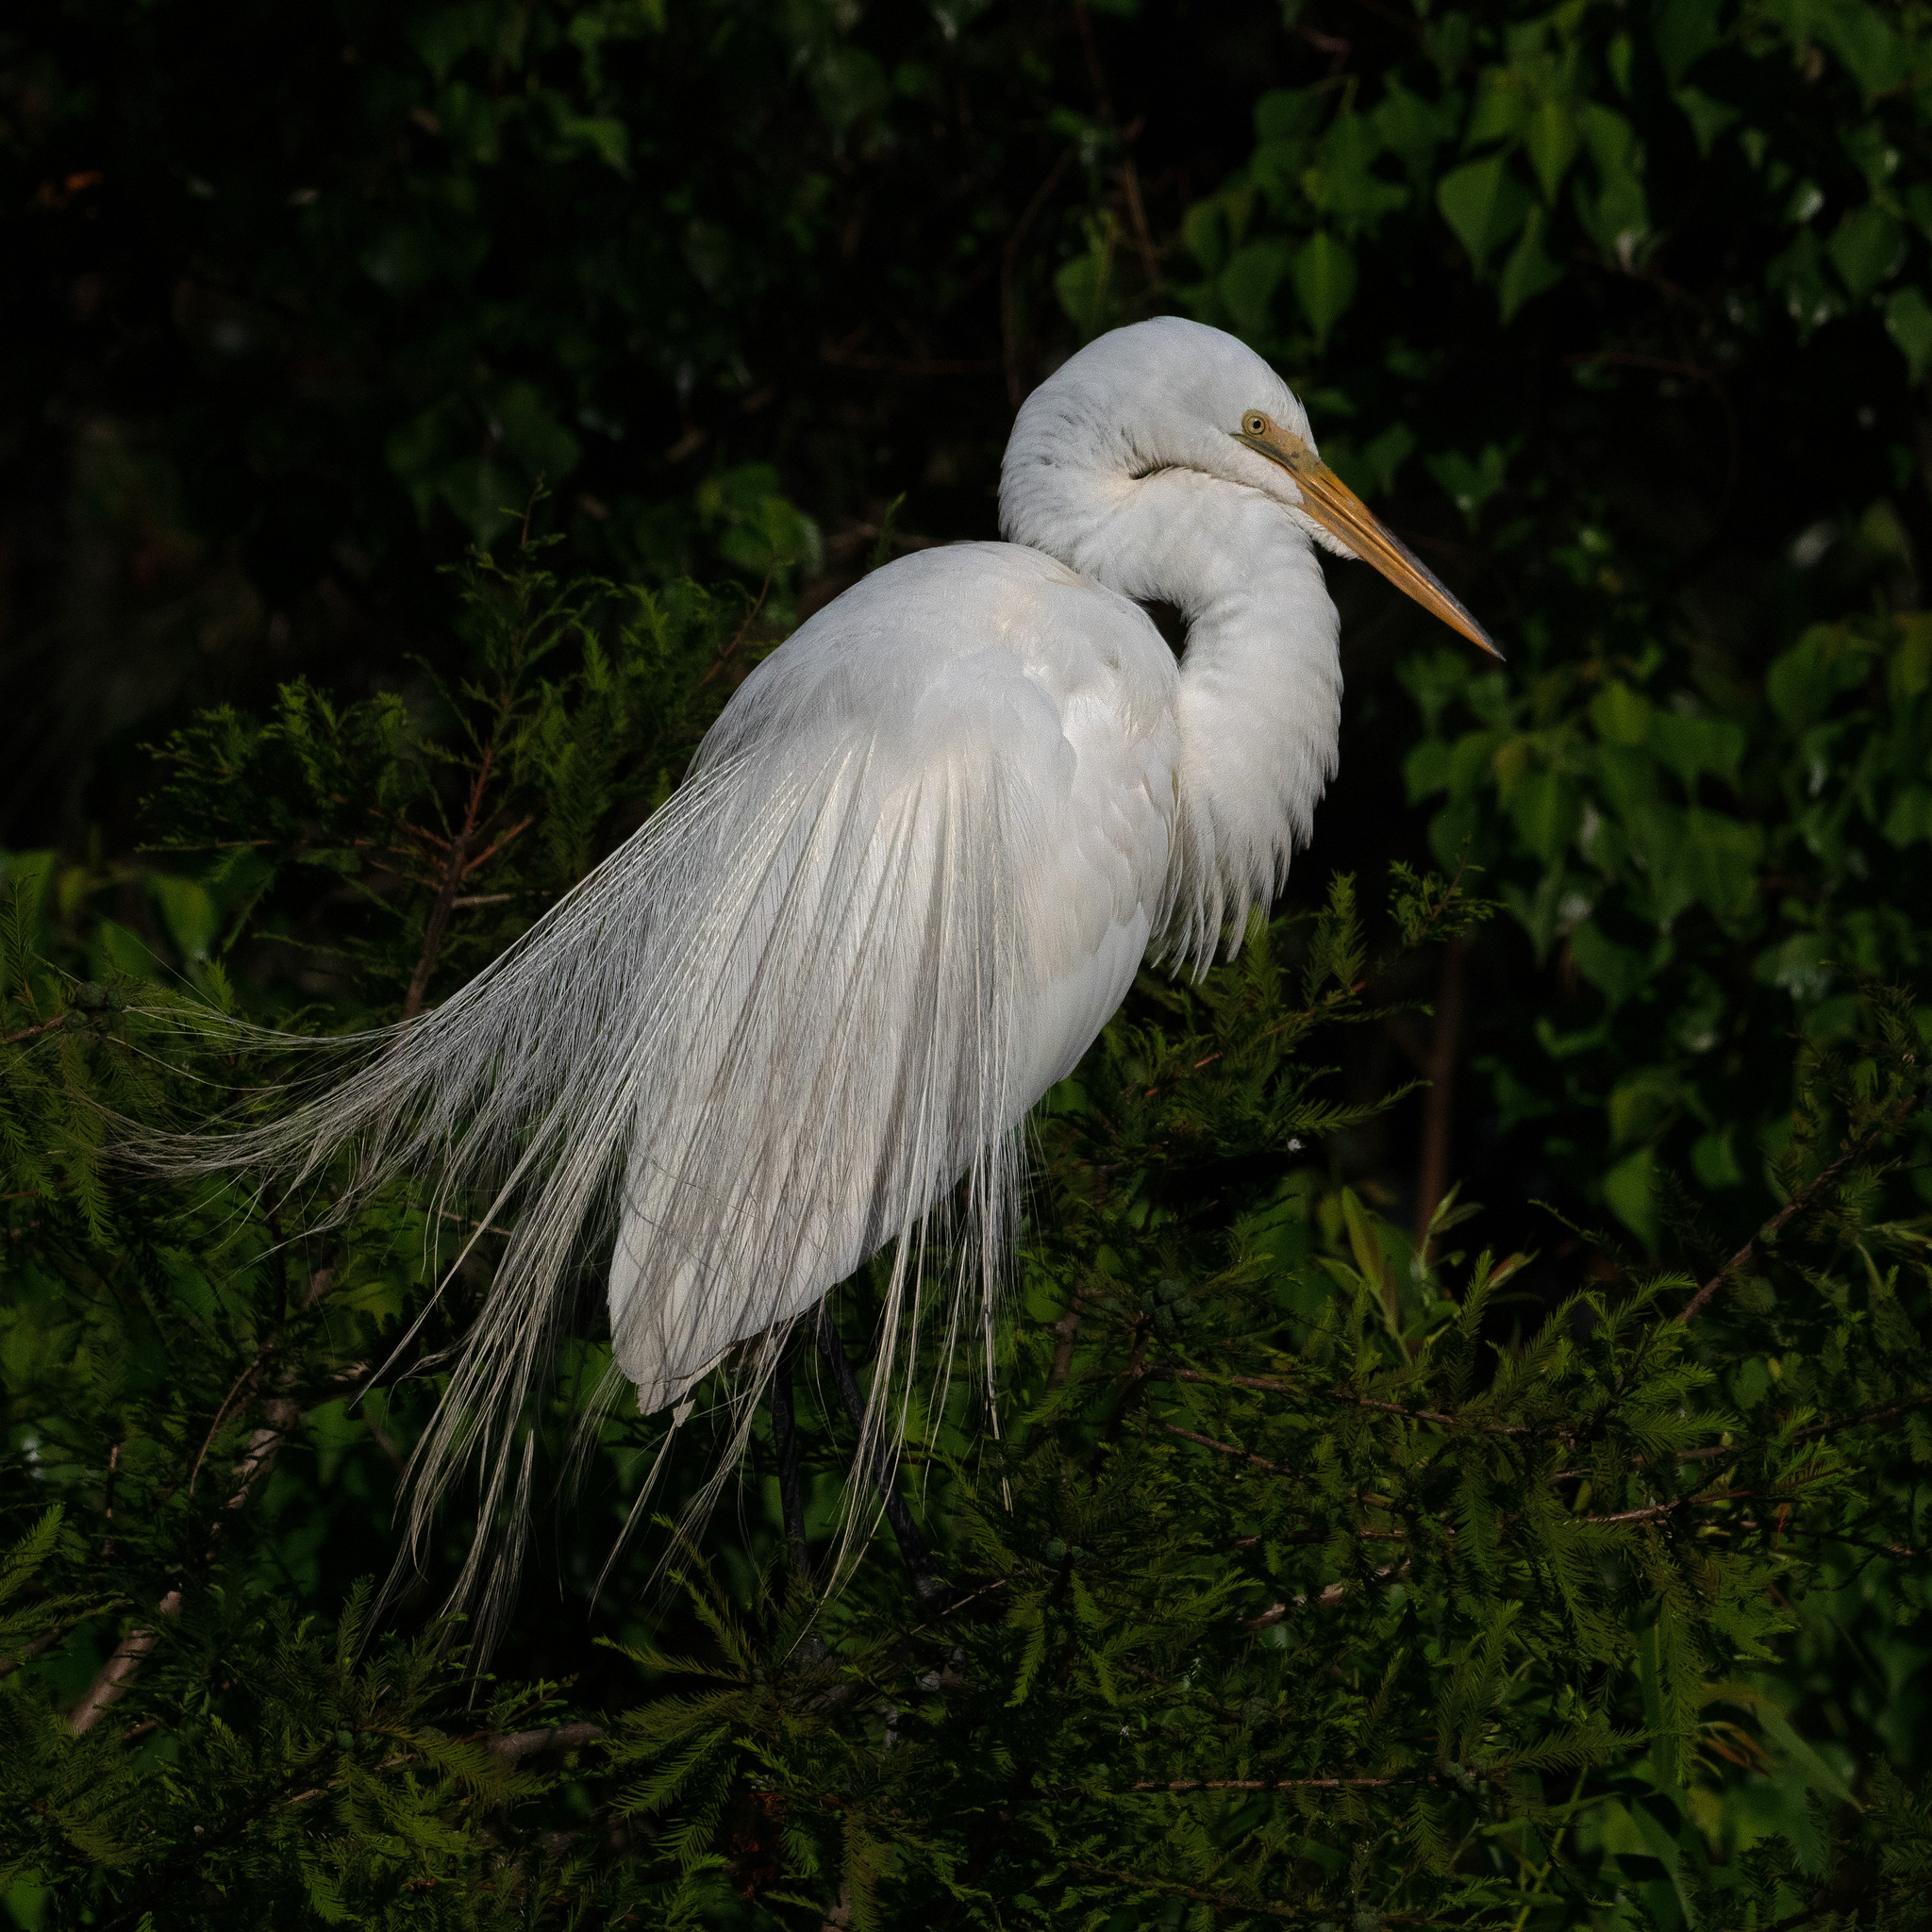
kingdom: Animalia
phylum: Chordata
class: Aves
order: Pelecaniformes
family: Ardeidae
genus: Ardea
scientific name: Ardea alba
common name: Great egret
